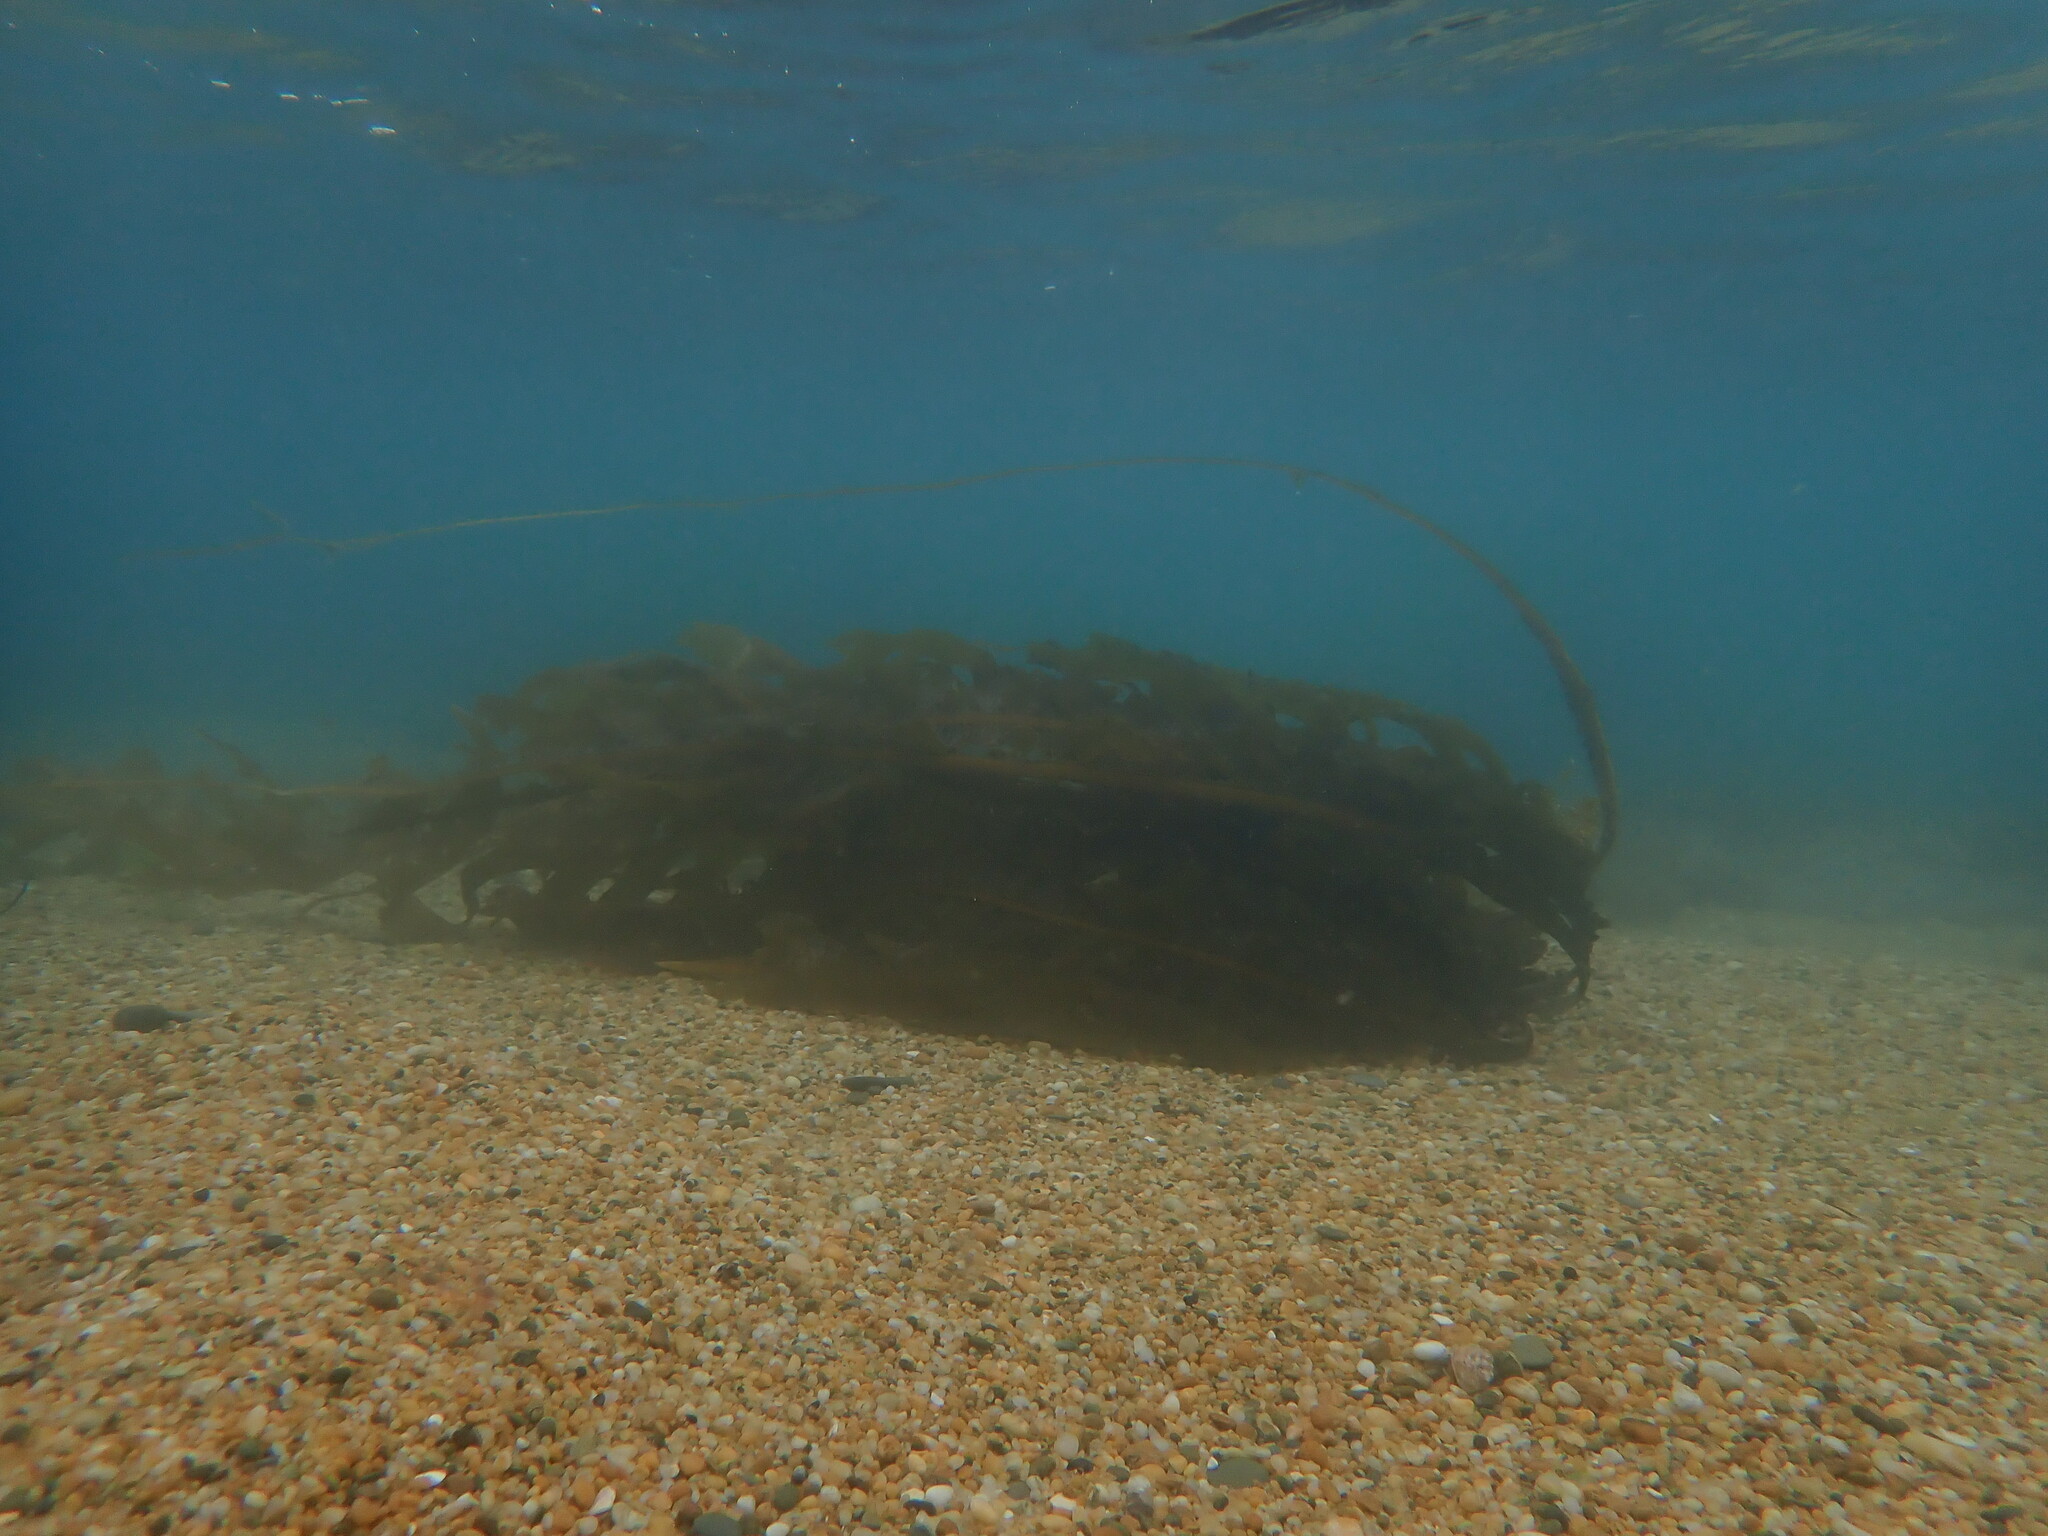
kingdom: Chromista
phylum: Ochrophyta
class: Phaeophyceae
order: Laminariales
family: Alariaceae
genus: Undaria
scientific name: Undaria pinnatifida
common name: Asian kelp
